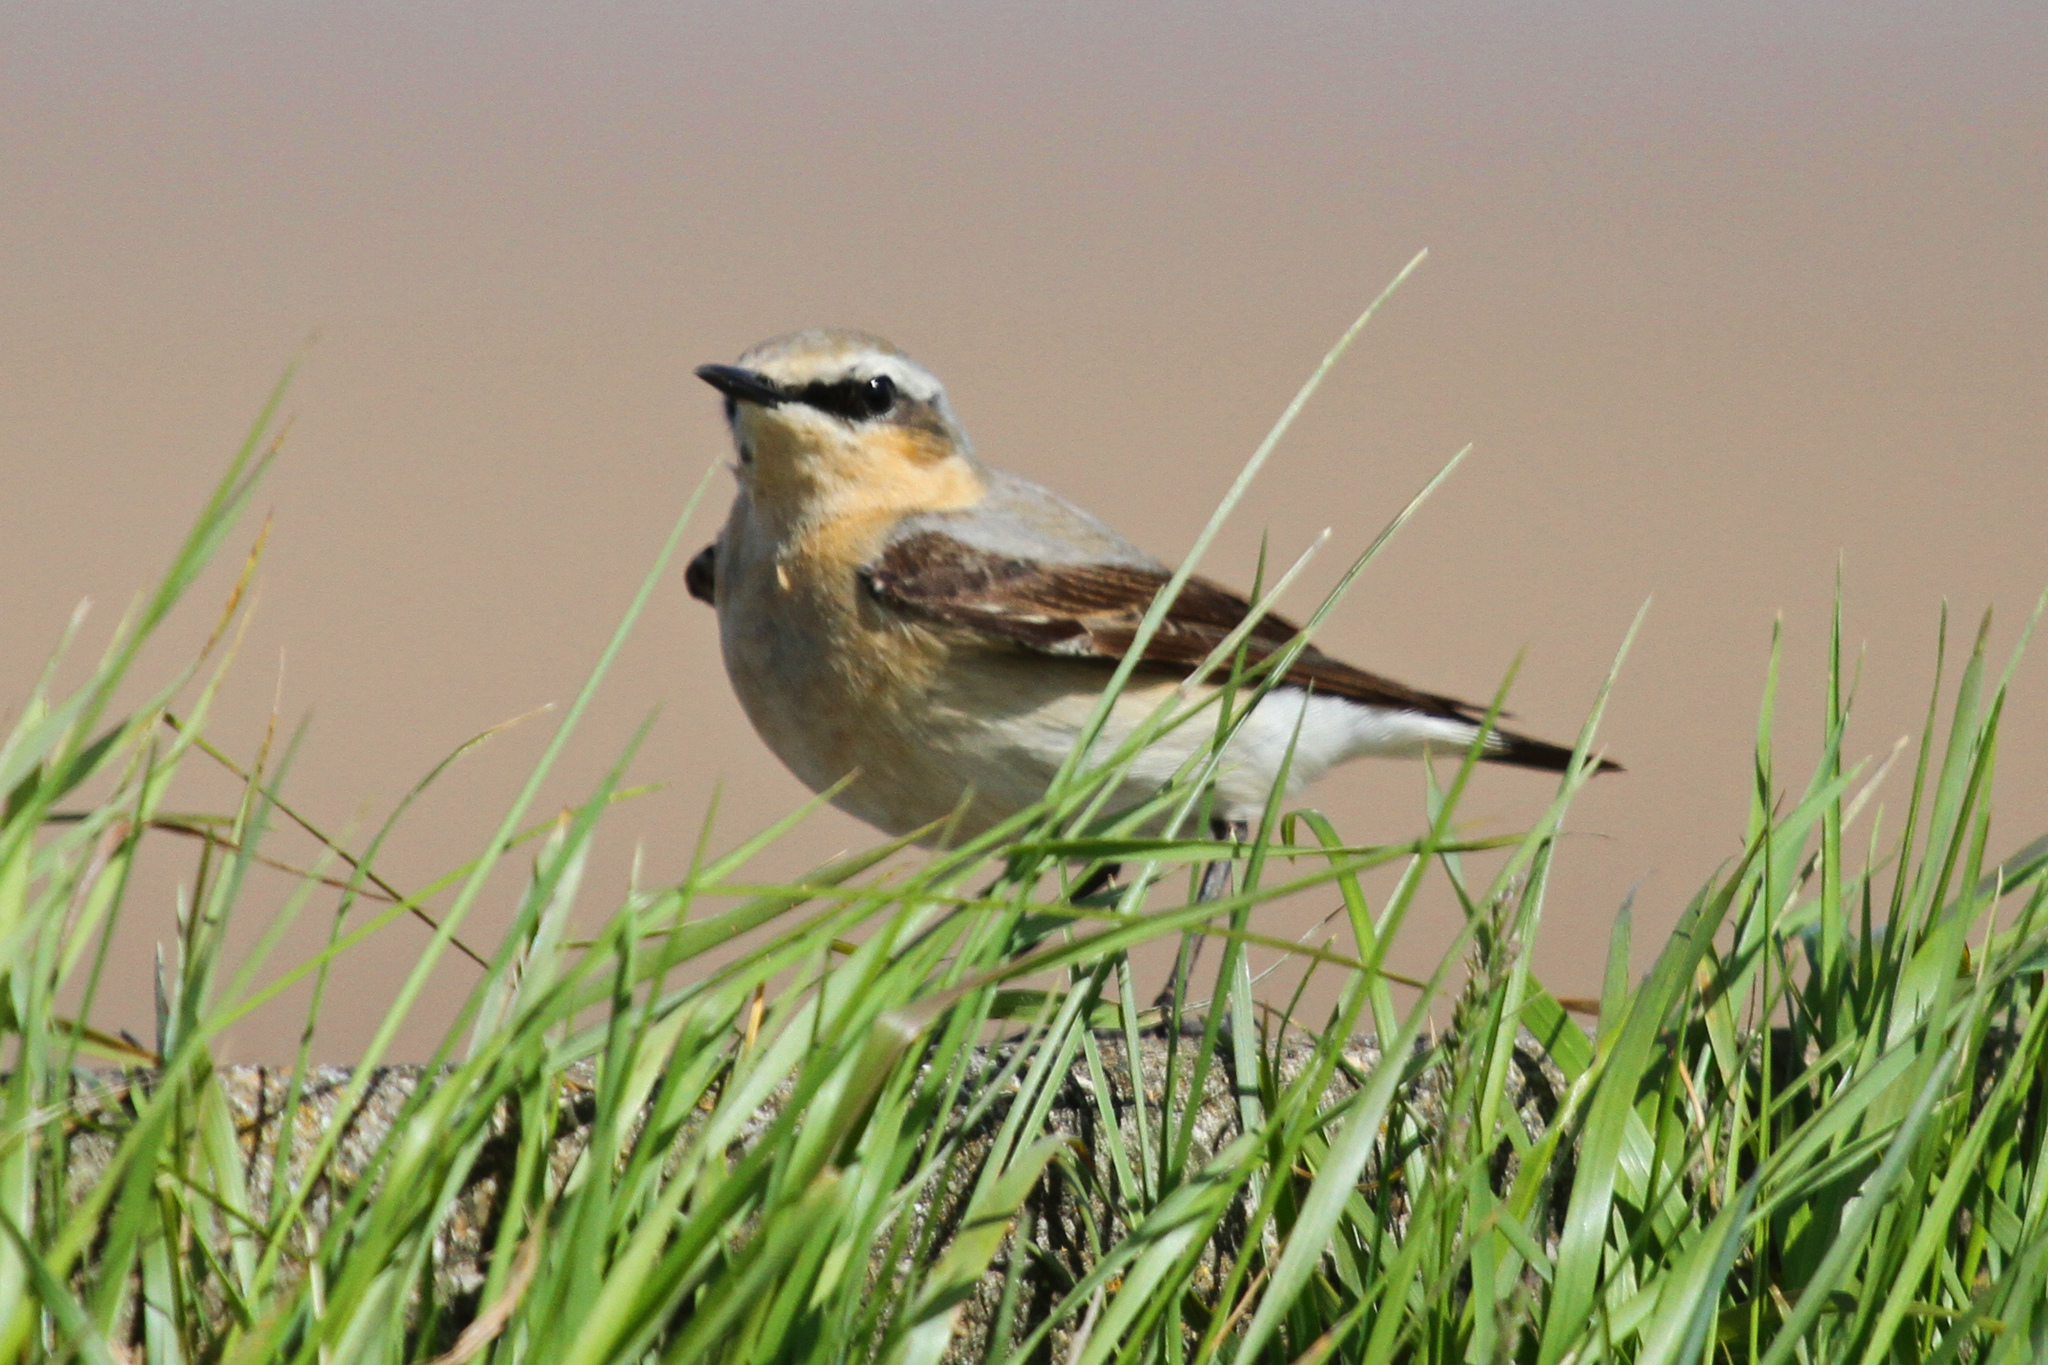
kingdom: Animalia
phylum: Chordata
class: Aves
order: Passeriformes
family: Muscicapidae
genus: Oenanthe
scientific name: Oenanthe oenanthe
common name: Northern wheatear
